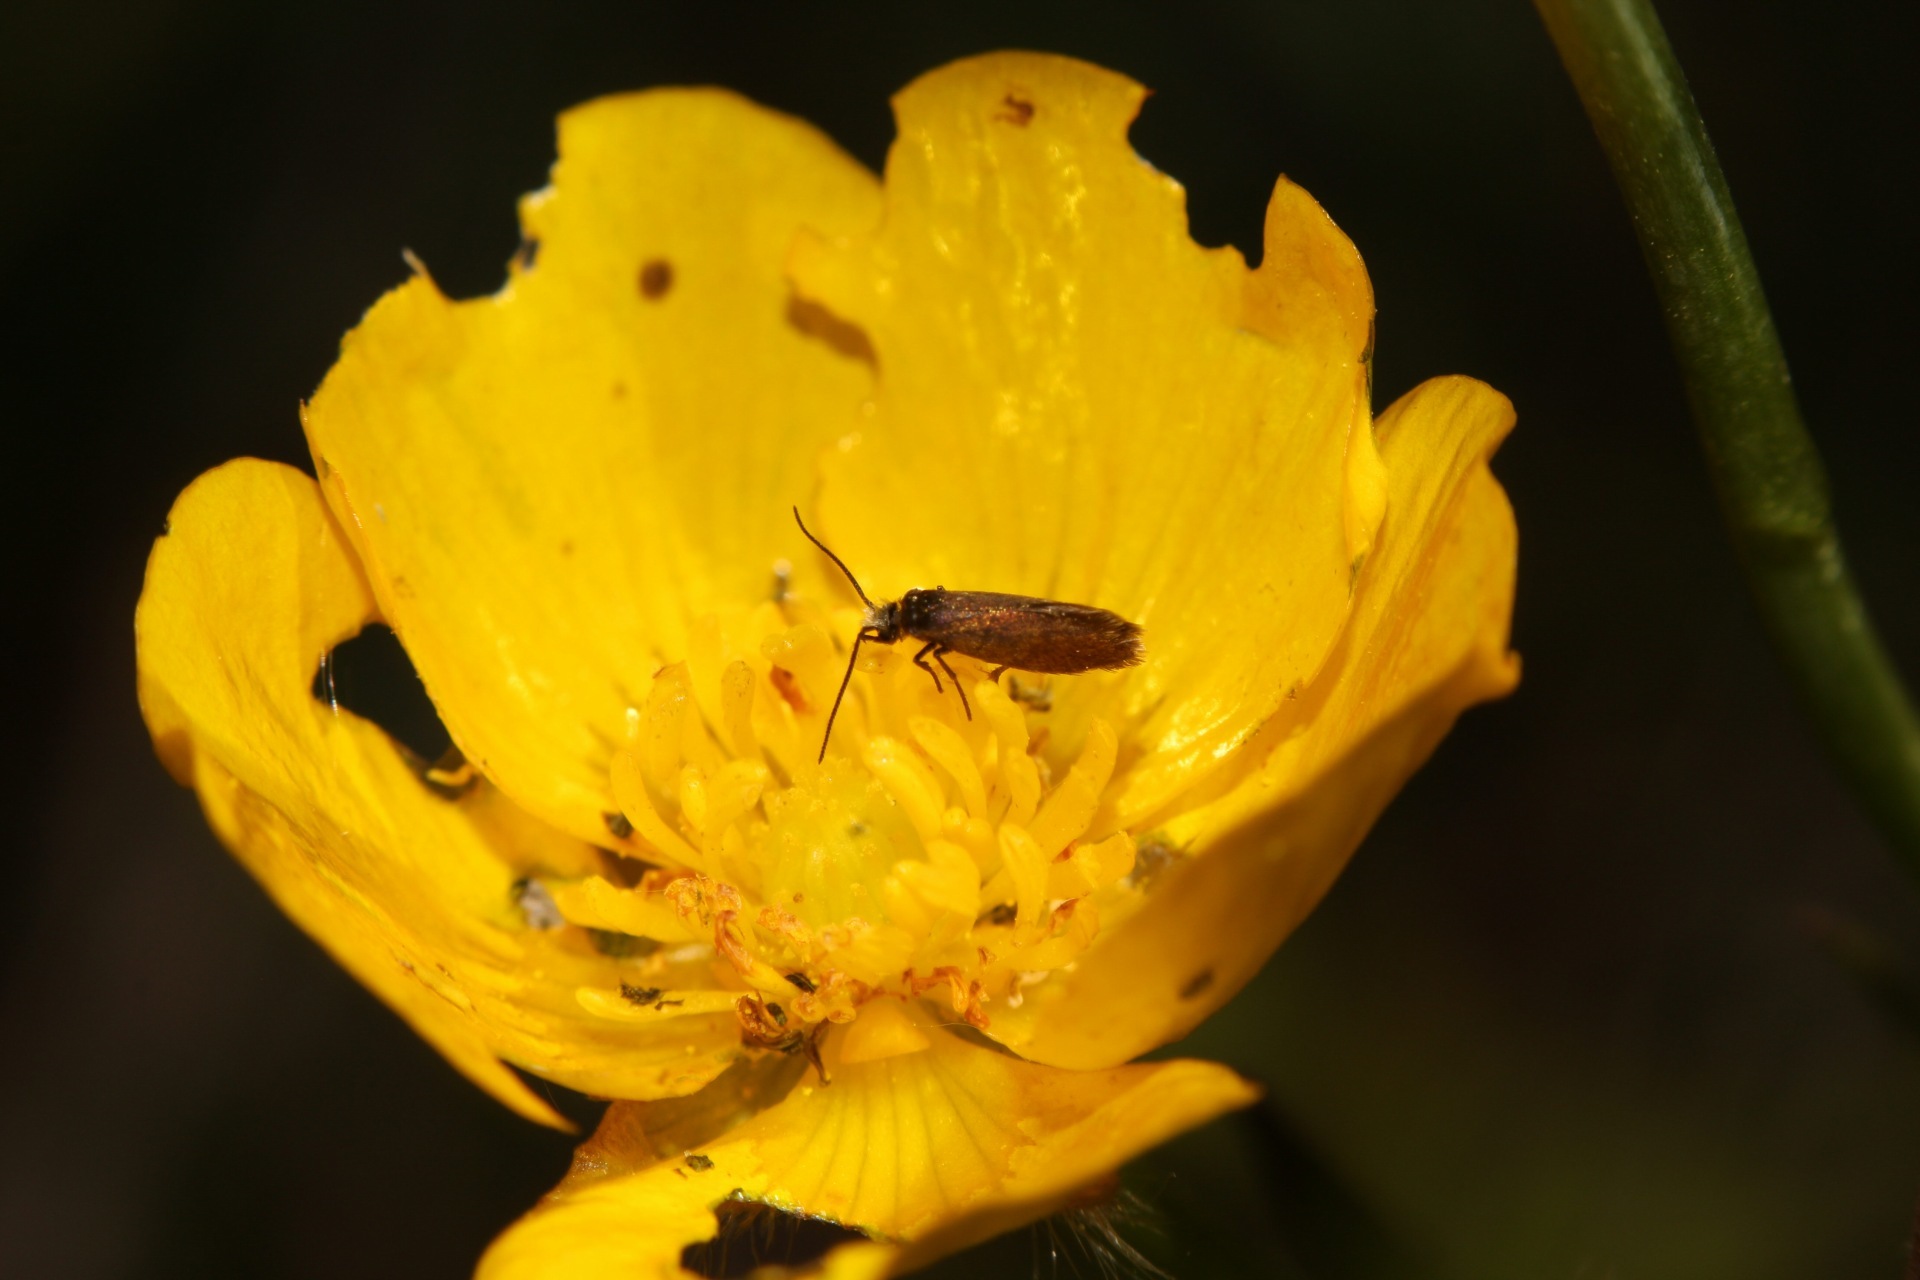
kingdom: Animalia
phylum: Arthropoda
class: Insecta
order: Lepidoptera
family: Micropterigidae
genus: Micropterix
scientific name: Micropterix calthella
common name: Plain gold
